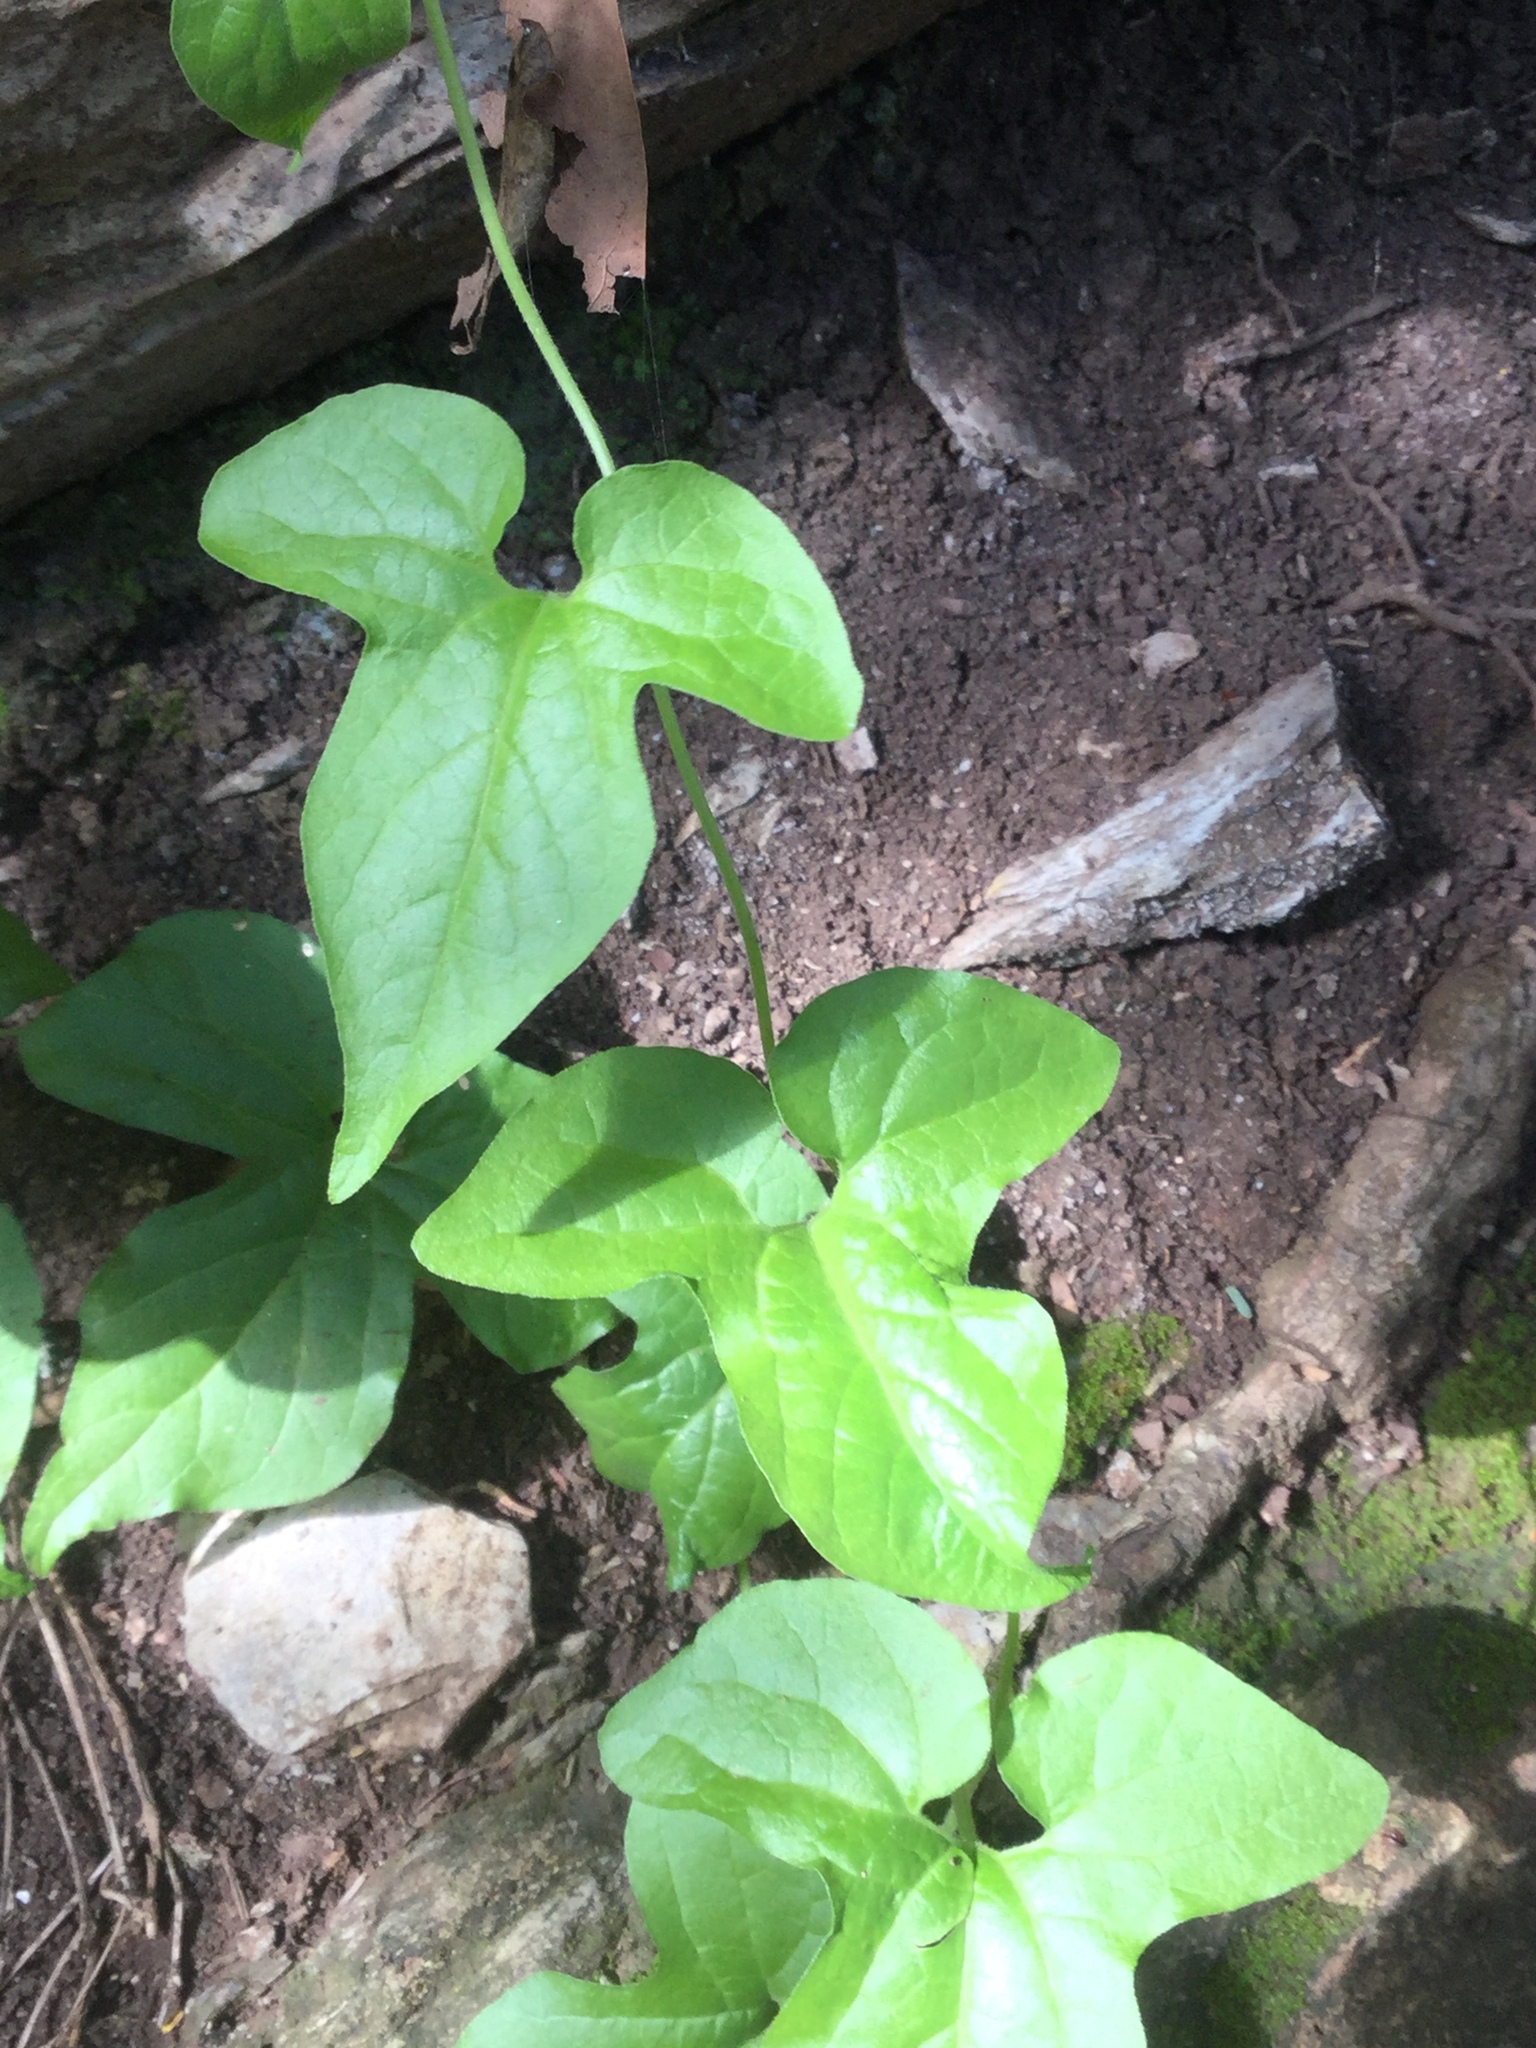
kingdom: Plantae
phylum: Tracheophyta
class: Magnoliopsida
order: Piperales
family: Aristolochiaceae
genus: Aristolochia
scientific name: Aristolochia pentandra
